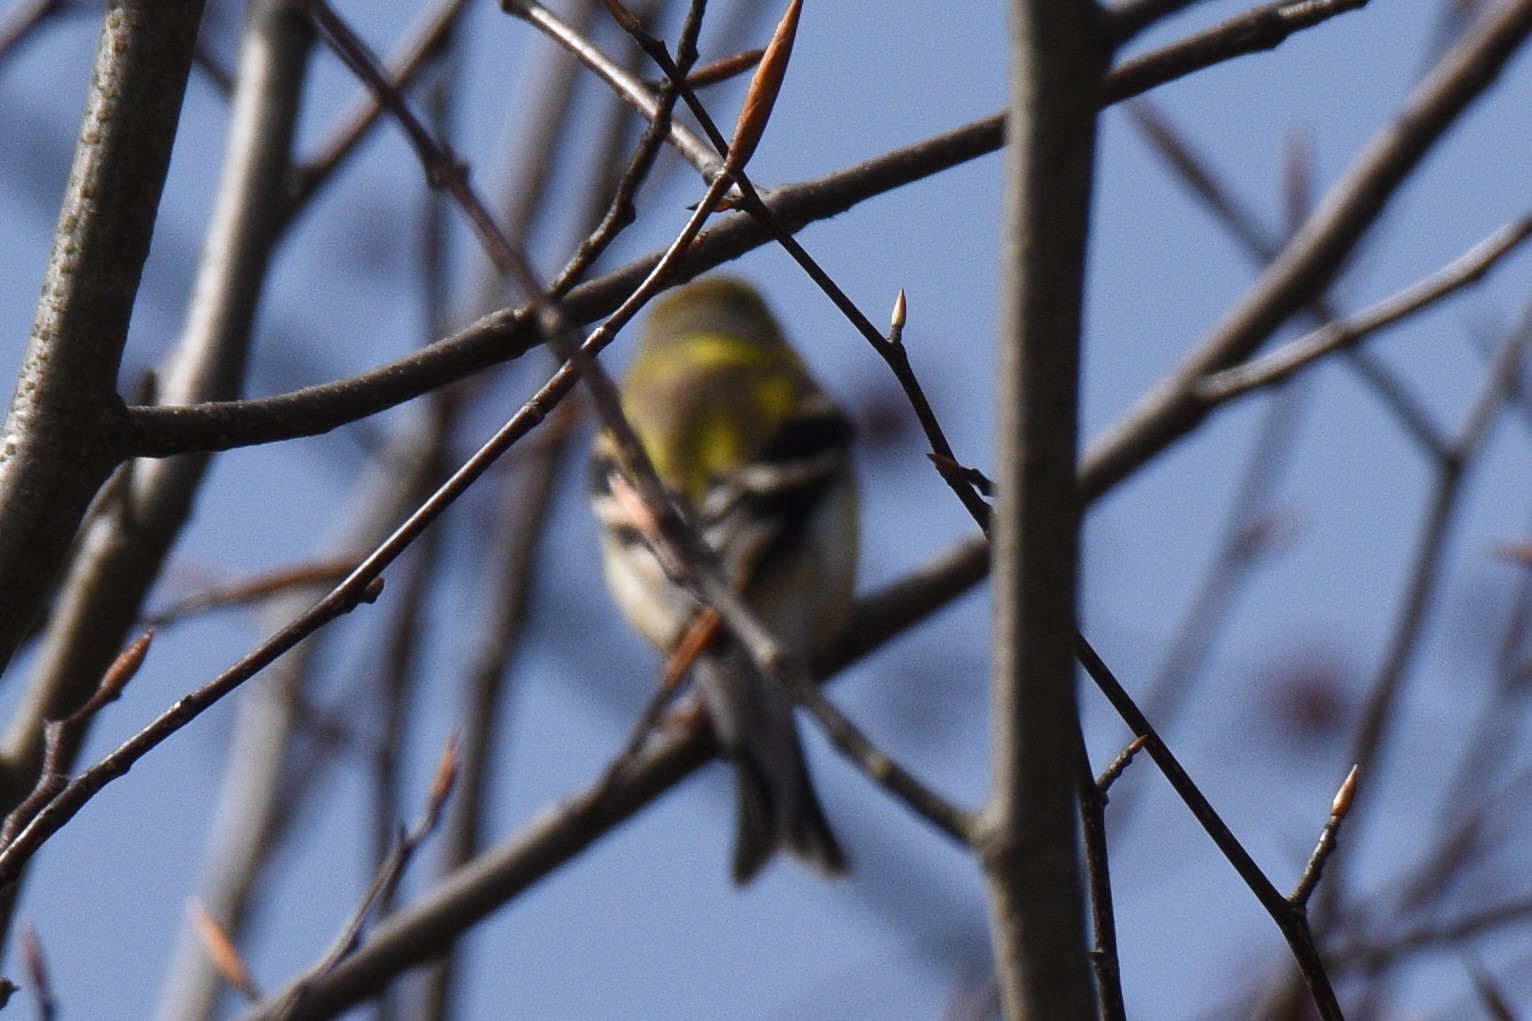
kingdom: Animalia
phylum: Chordata
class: Aves
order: Passeriformes
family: Fringillidae
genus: Spinus
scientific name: Spinus tristis
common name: American goldfinch
